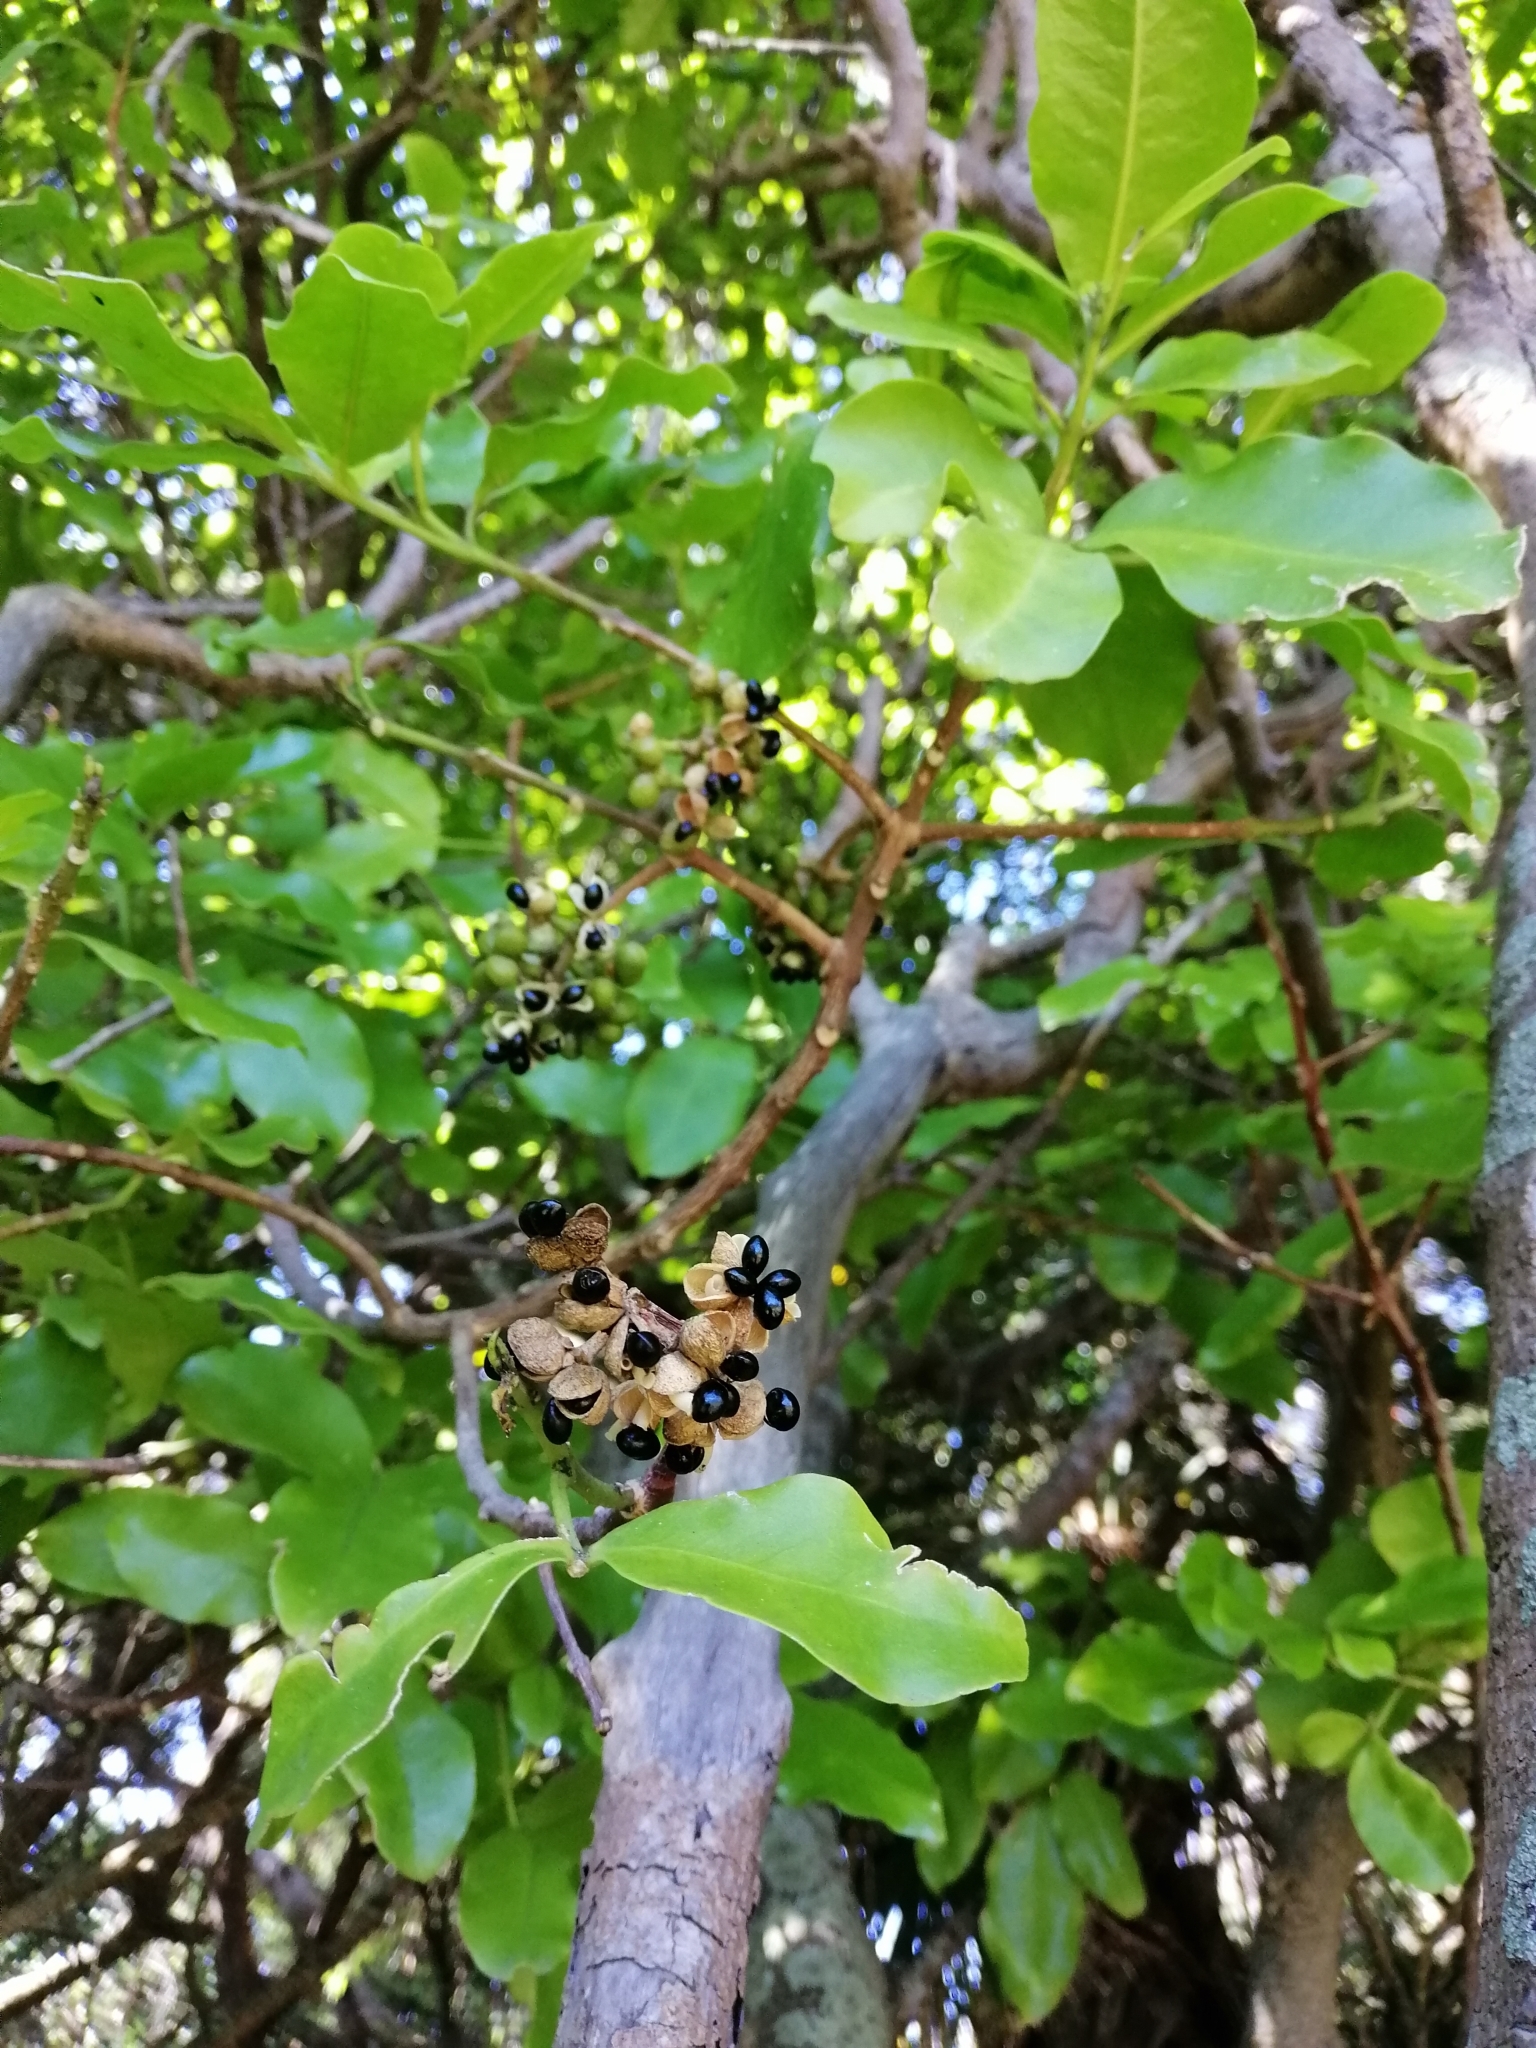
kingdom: Plantae
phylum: Tracheophyta
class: Magnoliopsida
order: Sapindales
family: Rutaceae
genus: Melicope
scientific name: Melicope ternata
